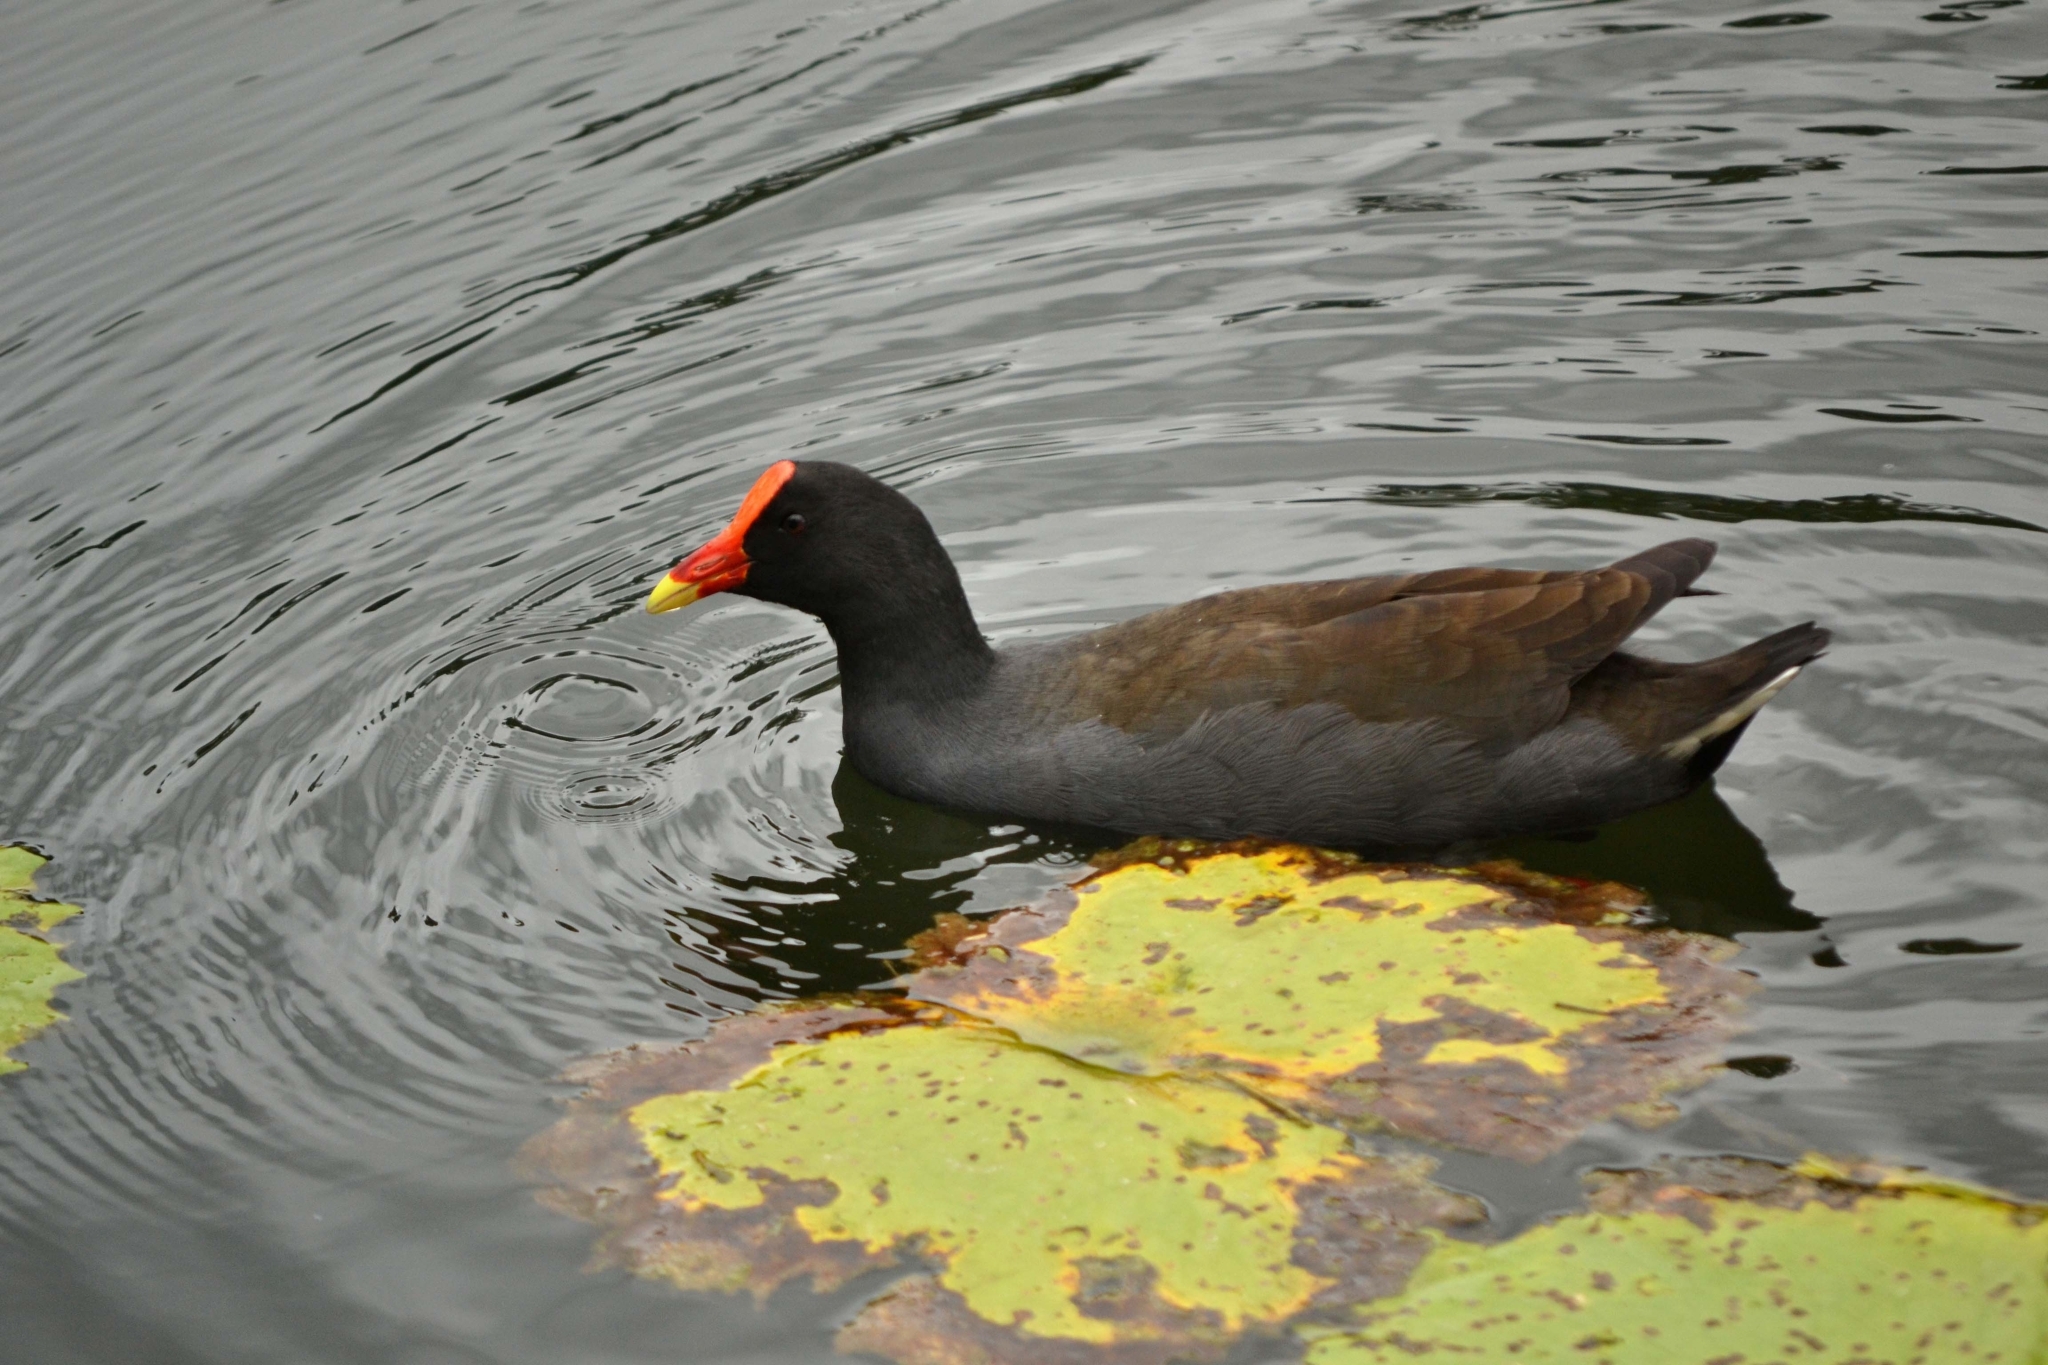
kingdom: Animalia
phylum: Chordata
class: Aves
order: Gruiformes
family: Rallidae
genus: Gallinula
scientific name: Gallinula tenebrosa
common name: Dusky moorhen
